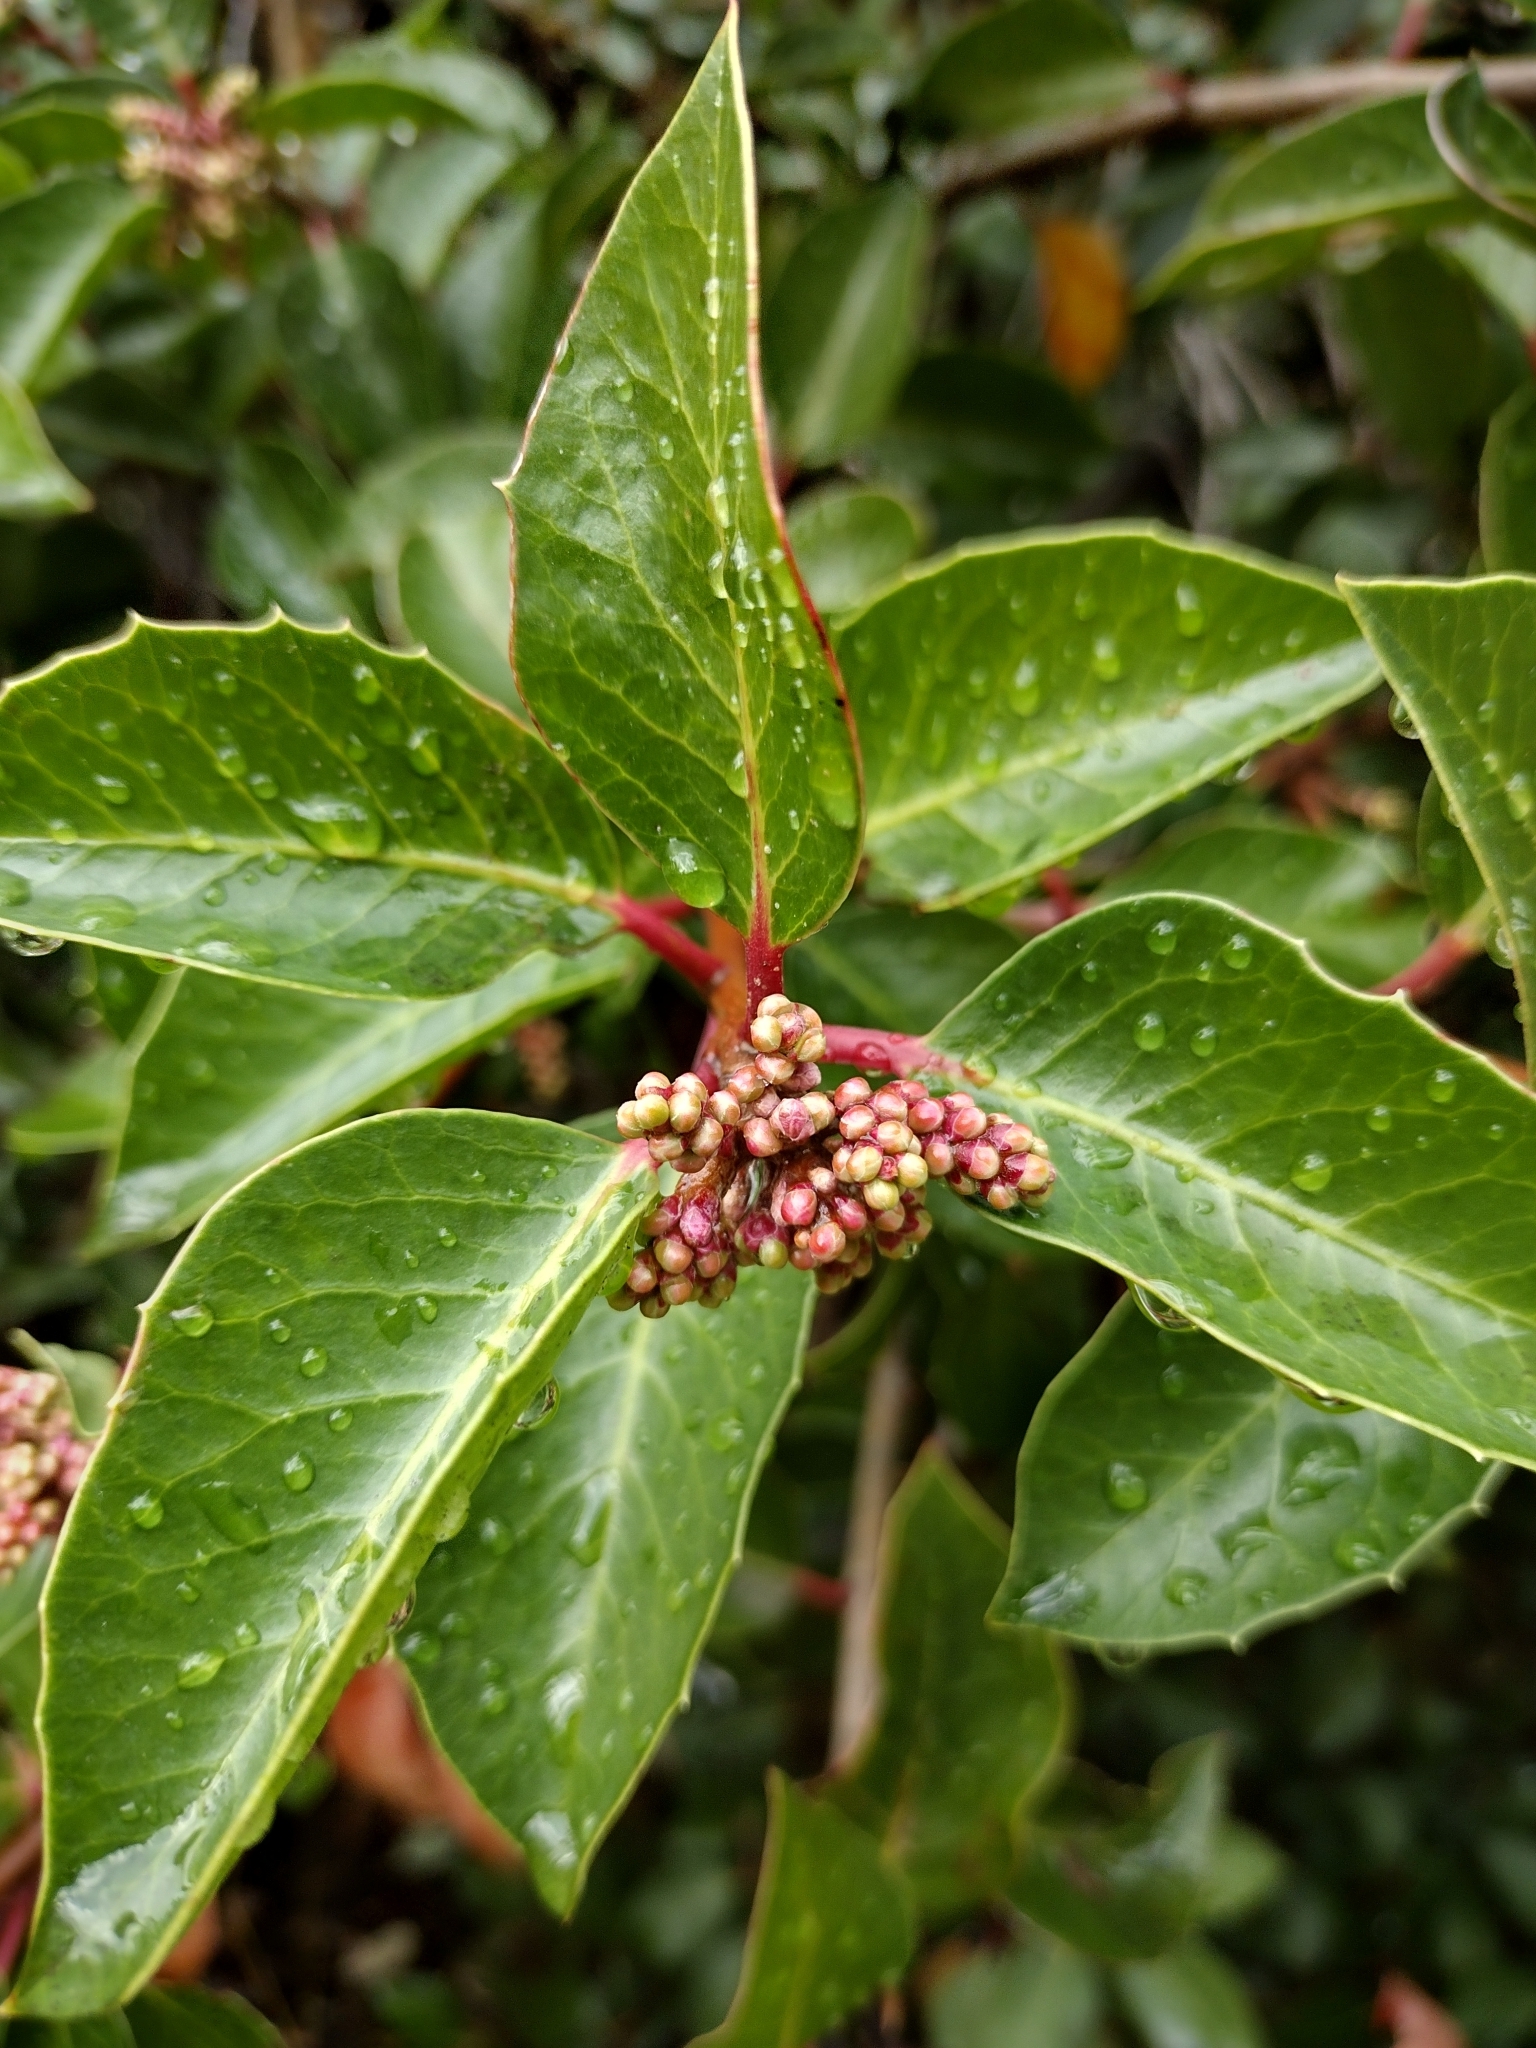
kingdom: Plantae
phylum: Tracheophyta
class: Magnoliopsida
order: Sapindales
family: Anacardiaceae
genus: Rhus
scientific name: Rhus ovata
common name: Sugar sumac
